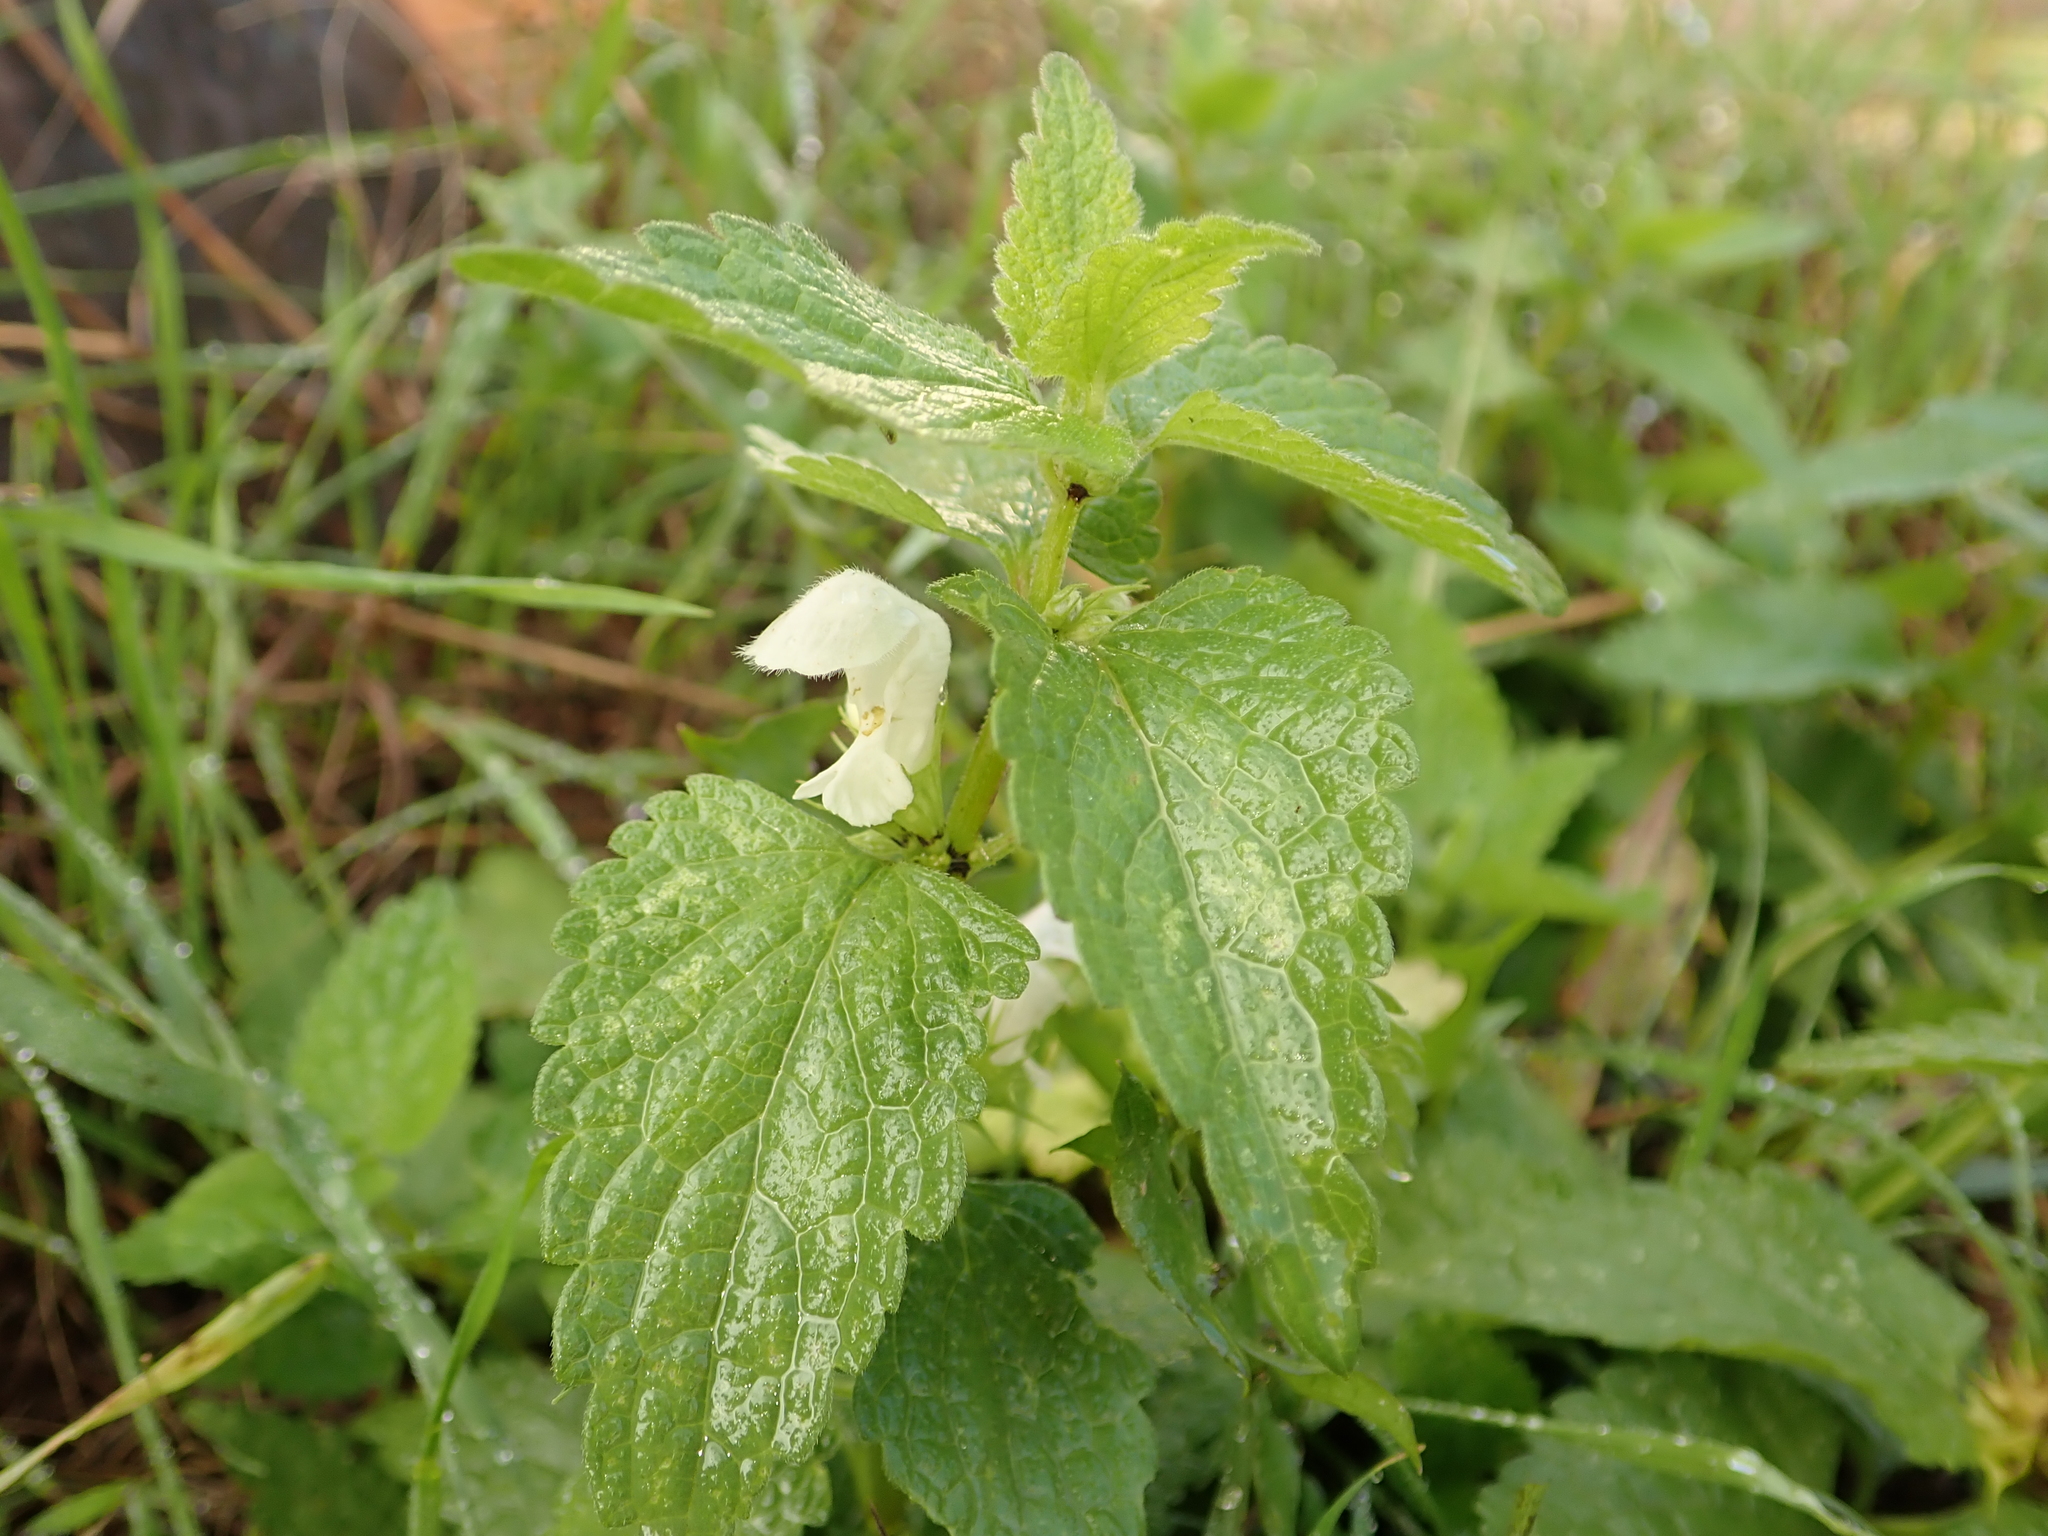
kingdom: Plantae
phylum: Tracheophyta
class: Magnoliopsida
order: Lamiales
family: Lamiaceae
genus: Lamium
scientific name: Lamium album
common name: White dead-nettle
